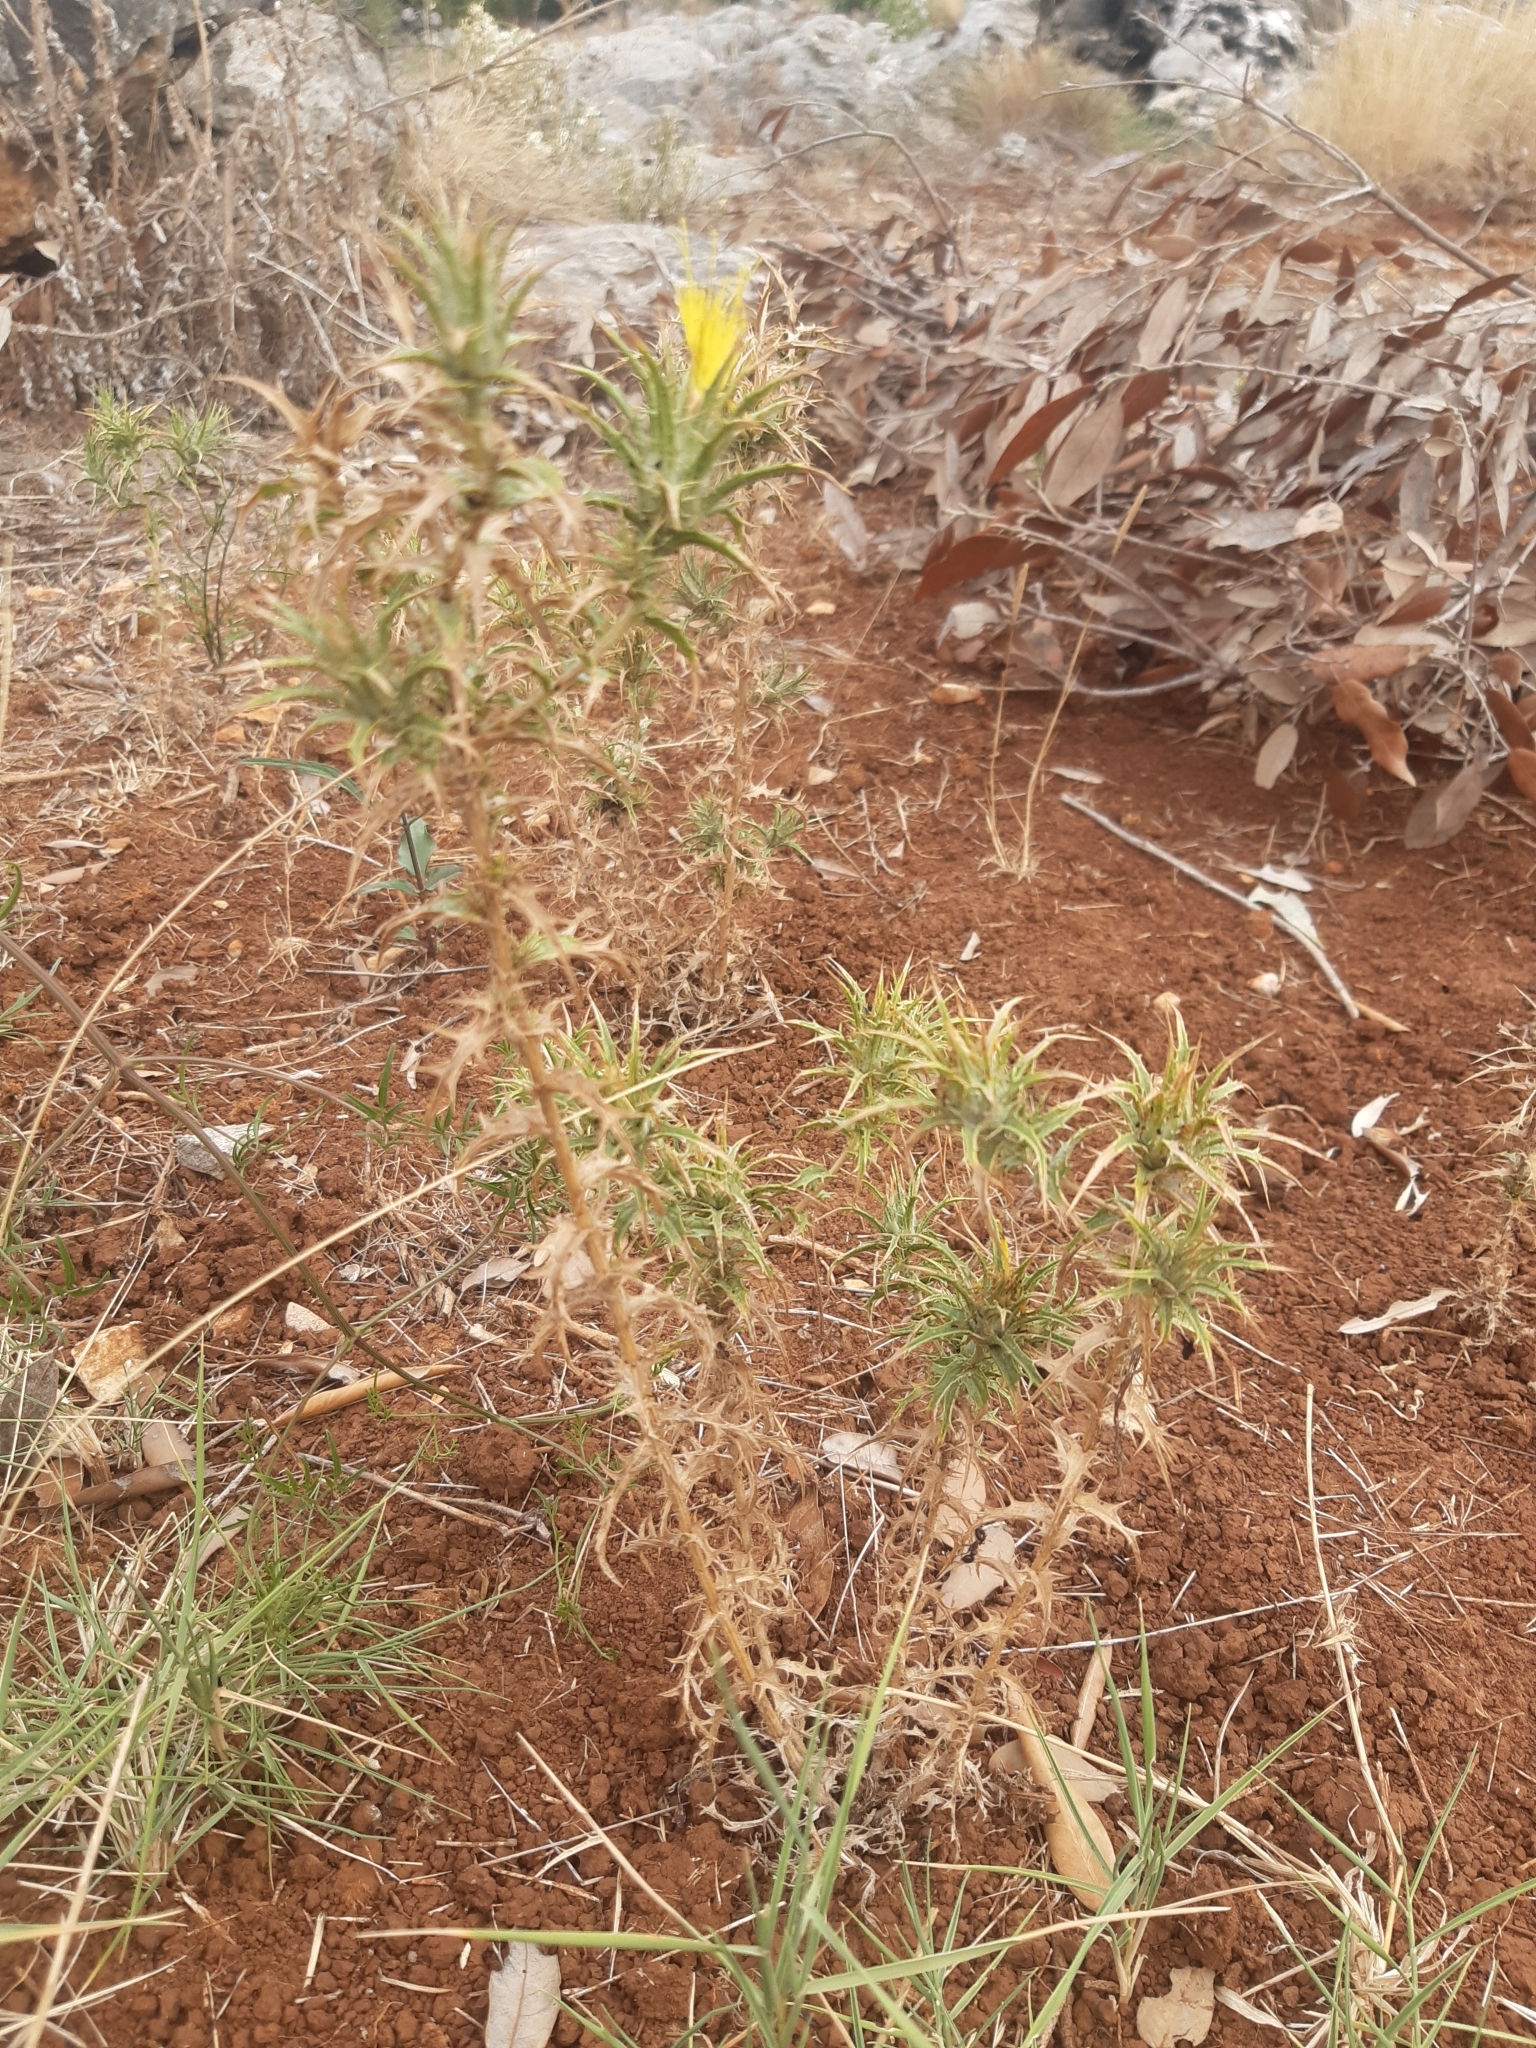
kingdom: Plantae
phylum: Tracheophyta
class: Magnoliopsida
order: Asterales
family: Asteraceae
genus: Carthamus
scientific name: Carthamus lanatus
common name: Downy safflower
